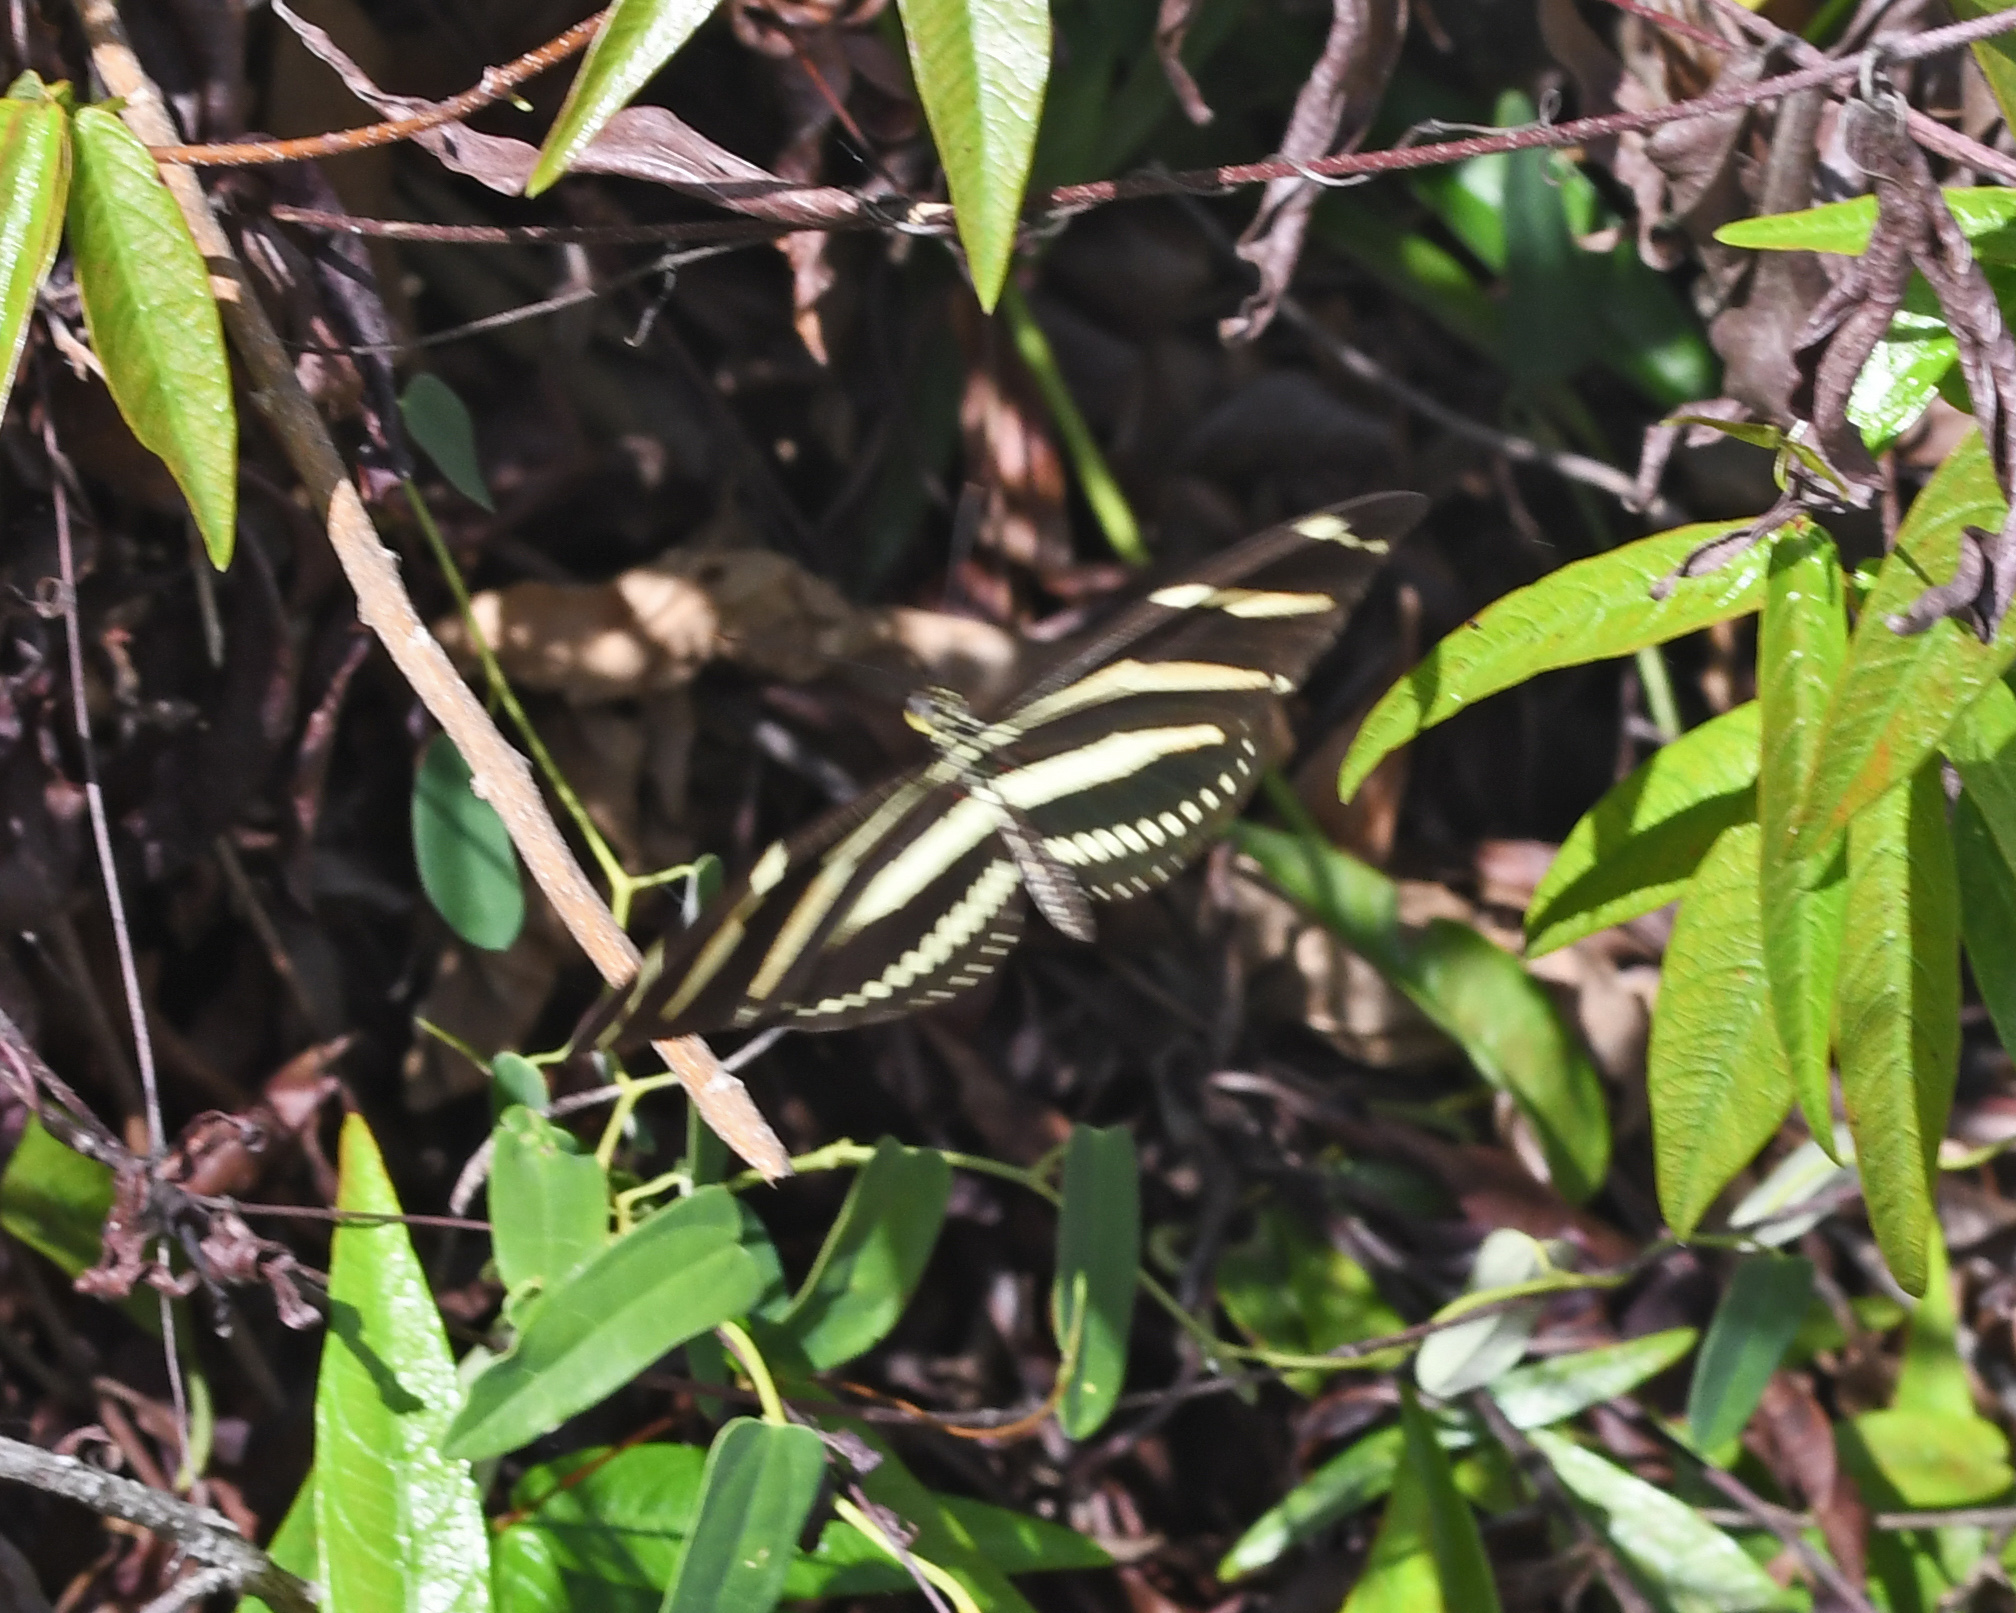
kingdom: Animalia
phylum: Arthropoda
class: Insecta
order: Lepidoptera
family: Nymphalidae
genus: Heliconius
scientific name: Heliconius charithonia
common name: Zebra long wing
